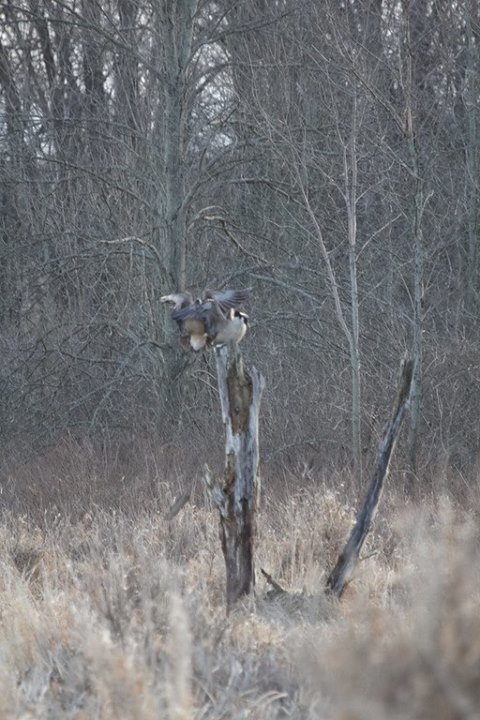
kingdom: Animalia
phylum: Chordata
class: Aves
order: Anseriformes
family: Anatidae
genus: Branta
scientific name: Branta canadensis
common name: Canada goose
